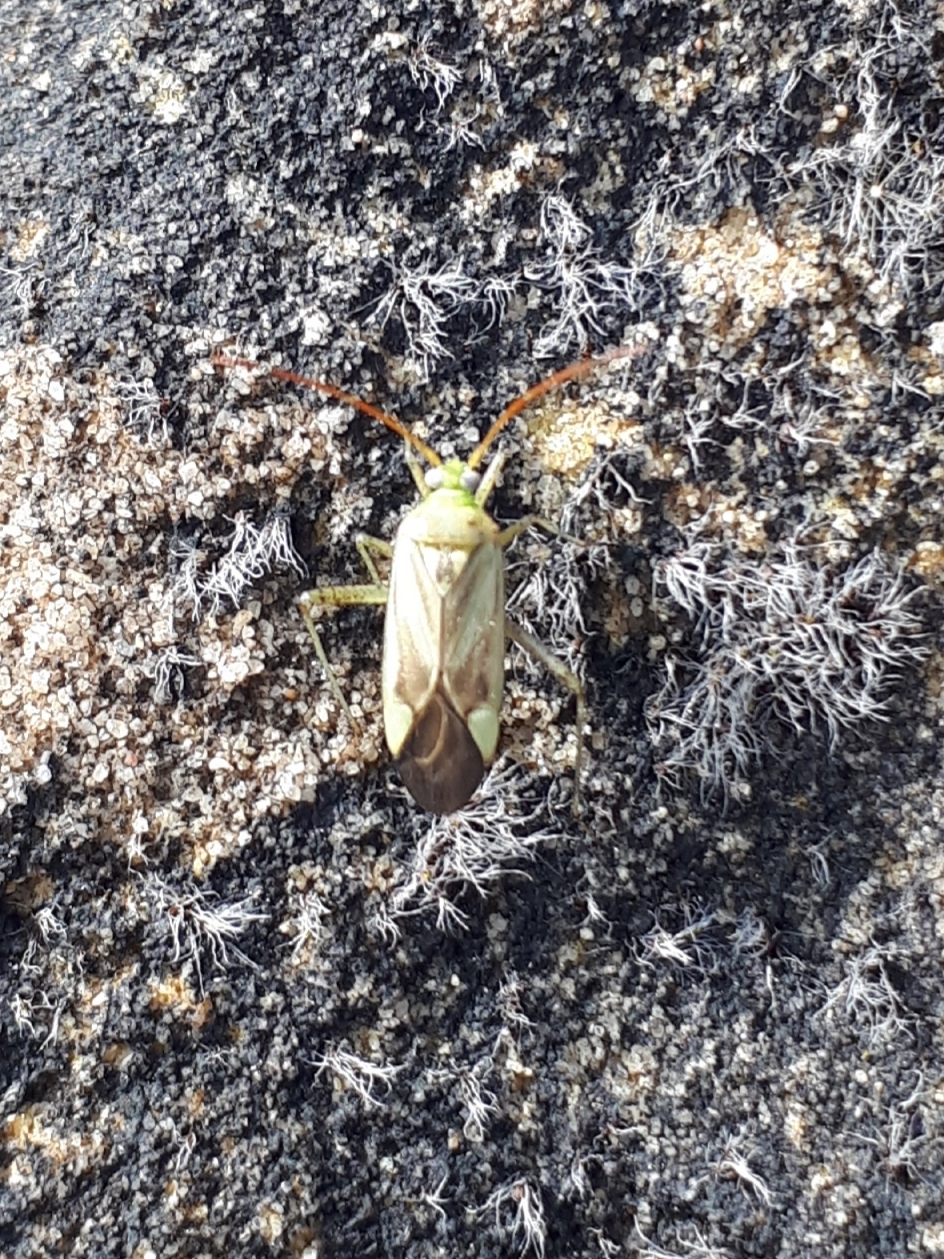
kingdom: Animalia
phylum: Arthropoda
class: Insecta
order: Hemiptera
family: Miridae
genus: Adelphocoris
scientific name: Adelphocoris lineolatus
